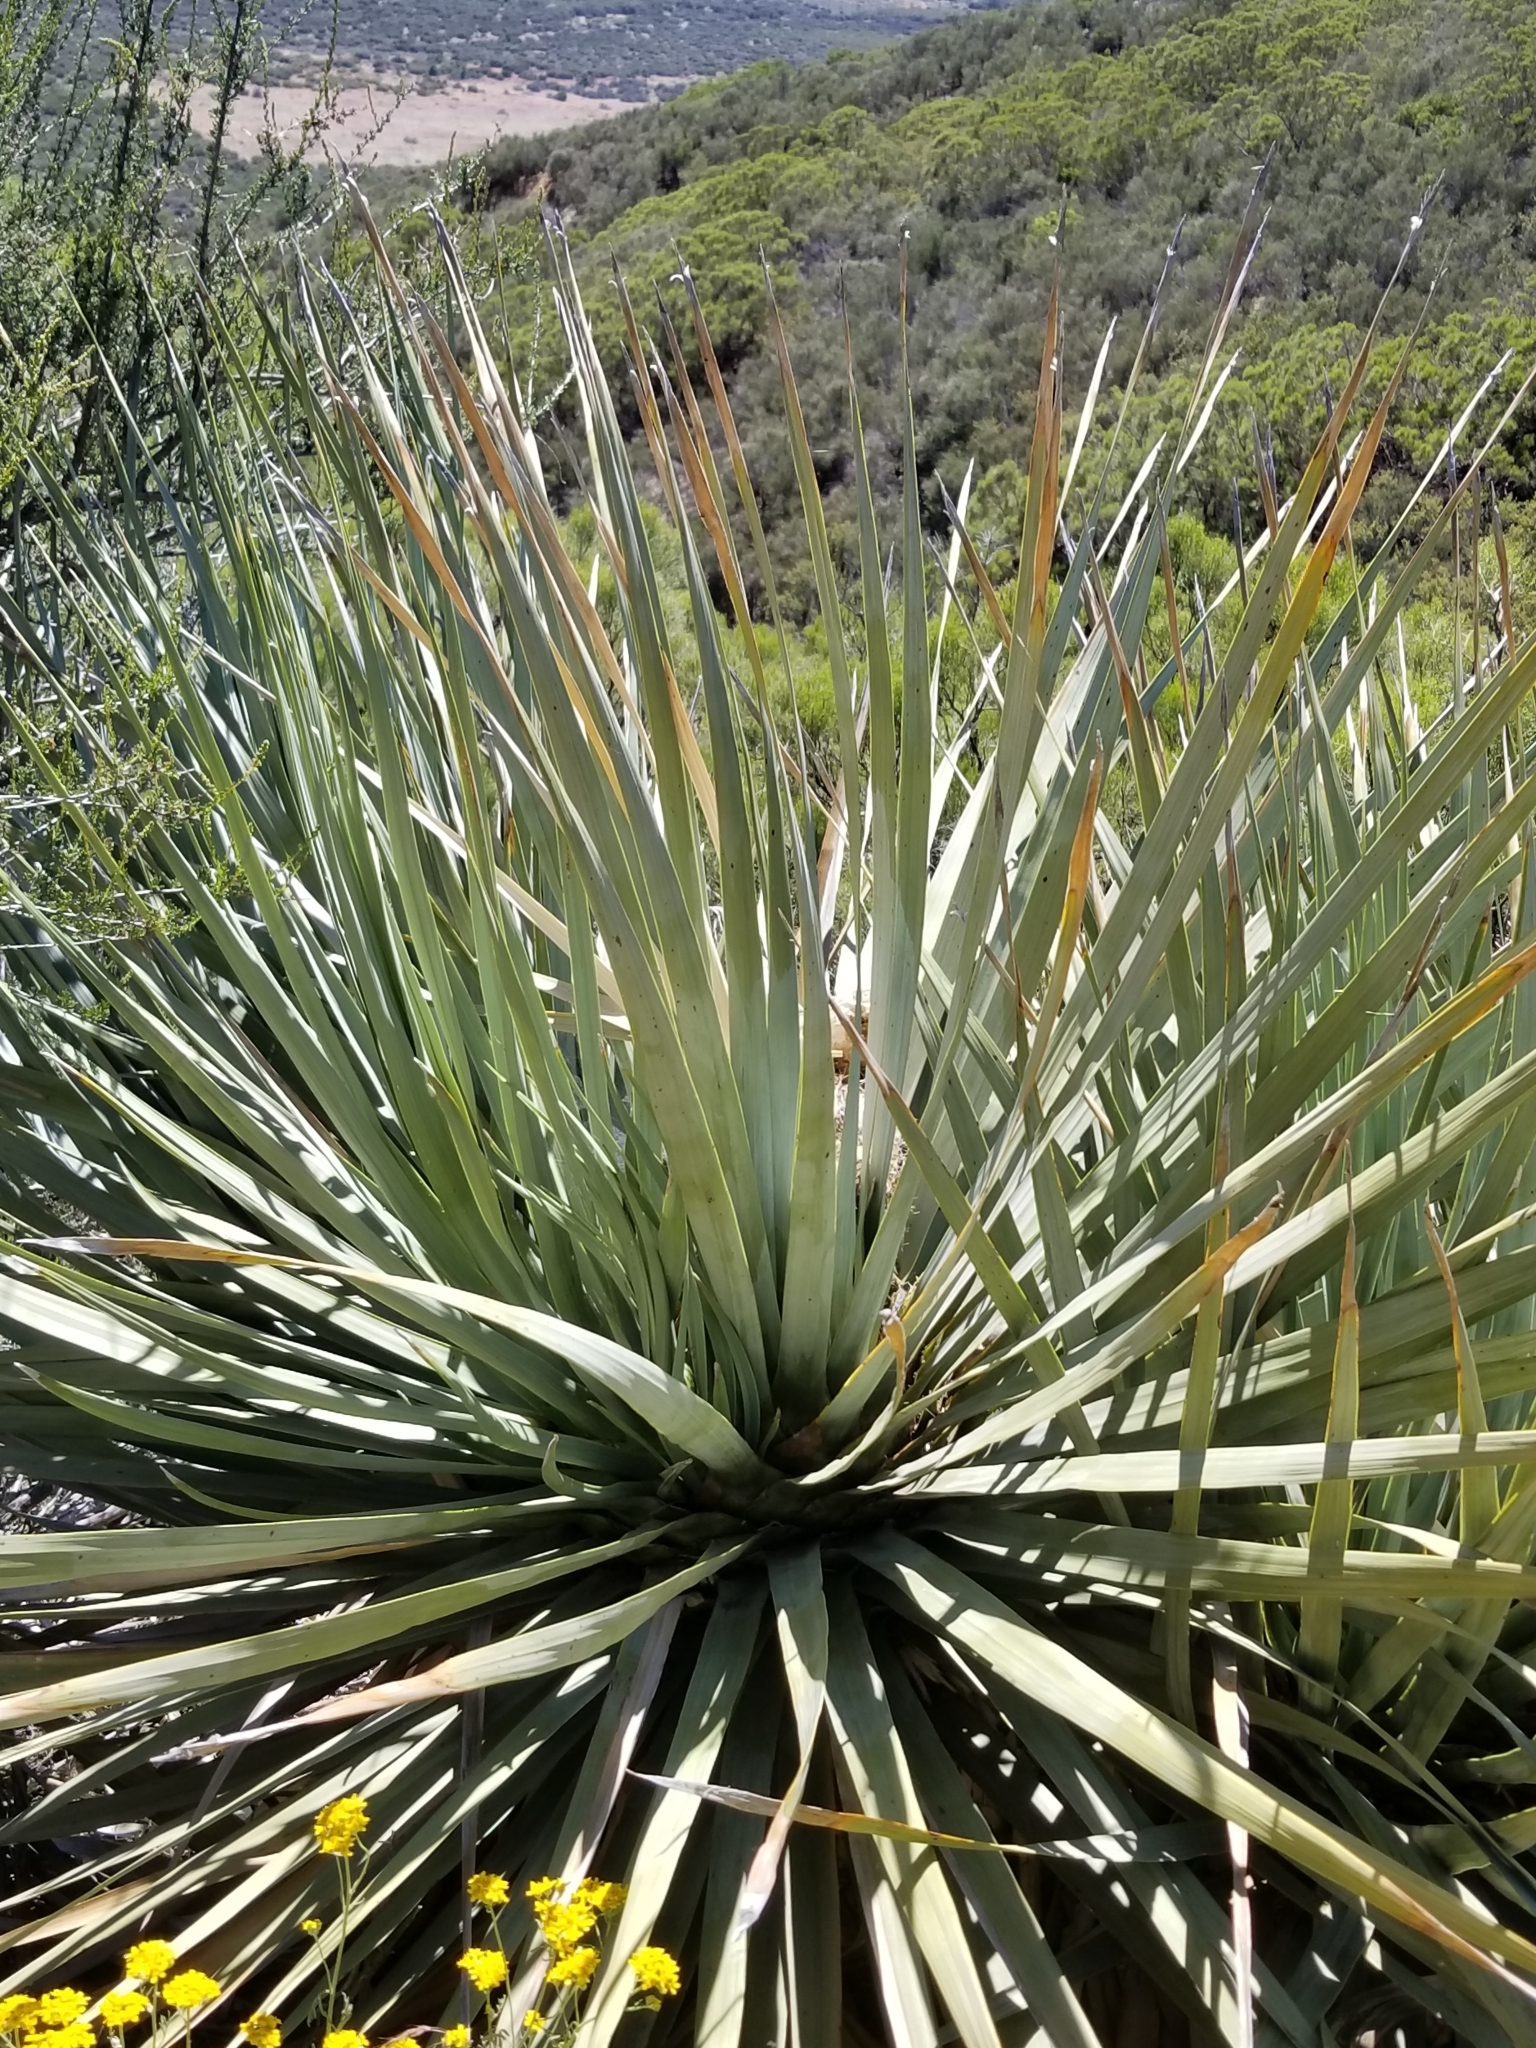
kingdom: Plantae
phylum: Tracheophyta
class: Liliopsida
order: Asparagales
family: Asparagaceae
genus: Nolina
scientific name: Nolina parryi
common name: Parry nolina
